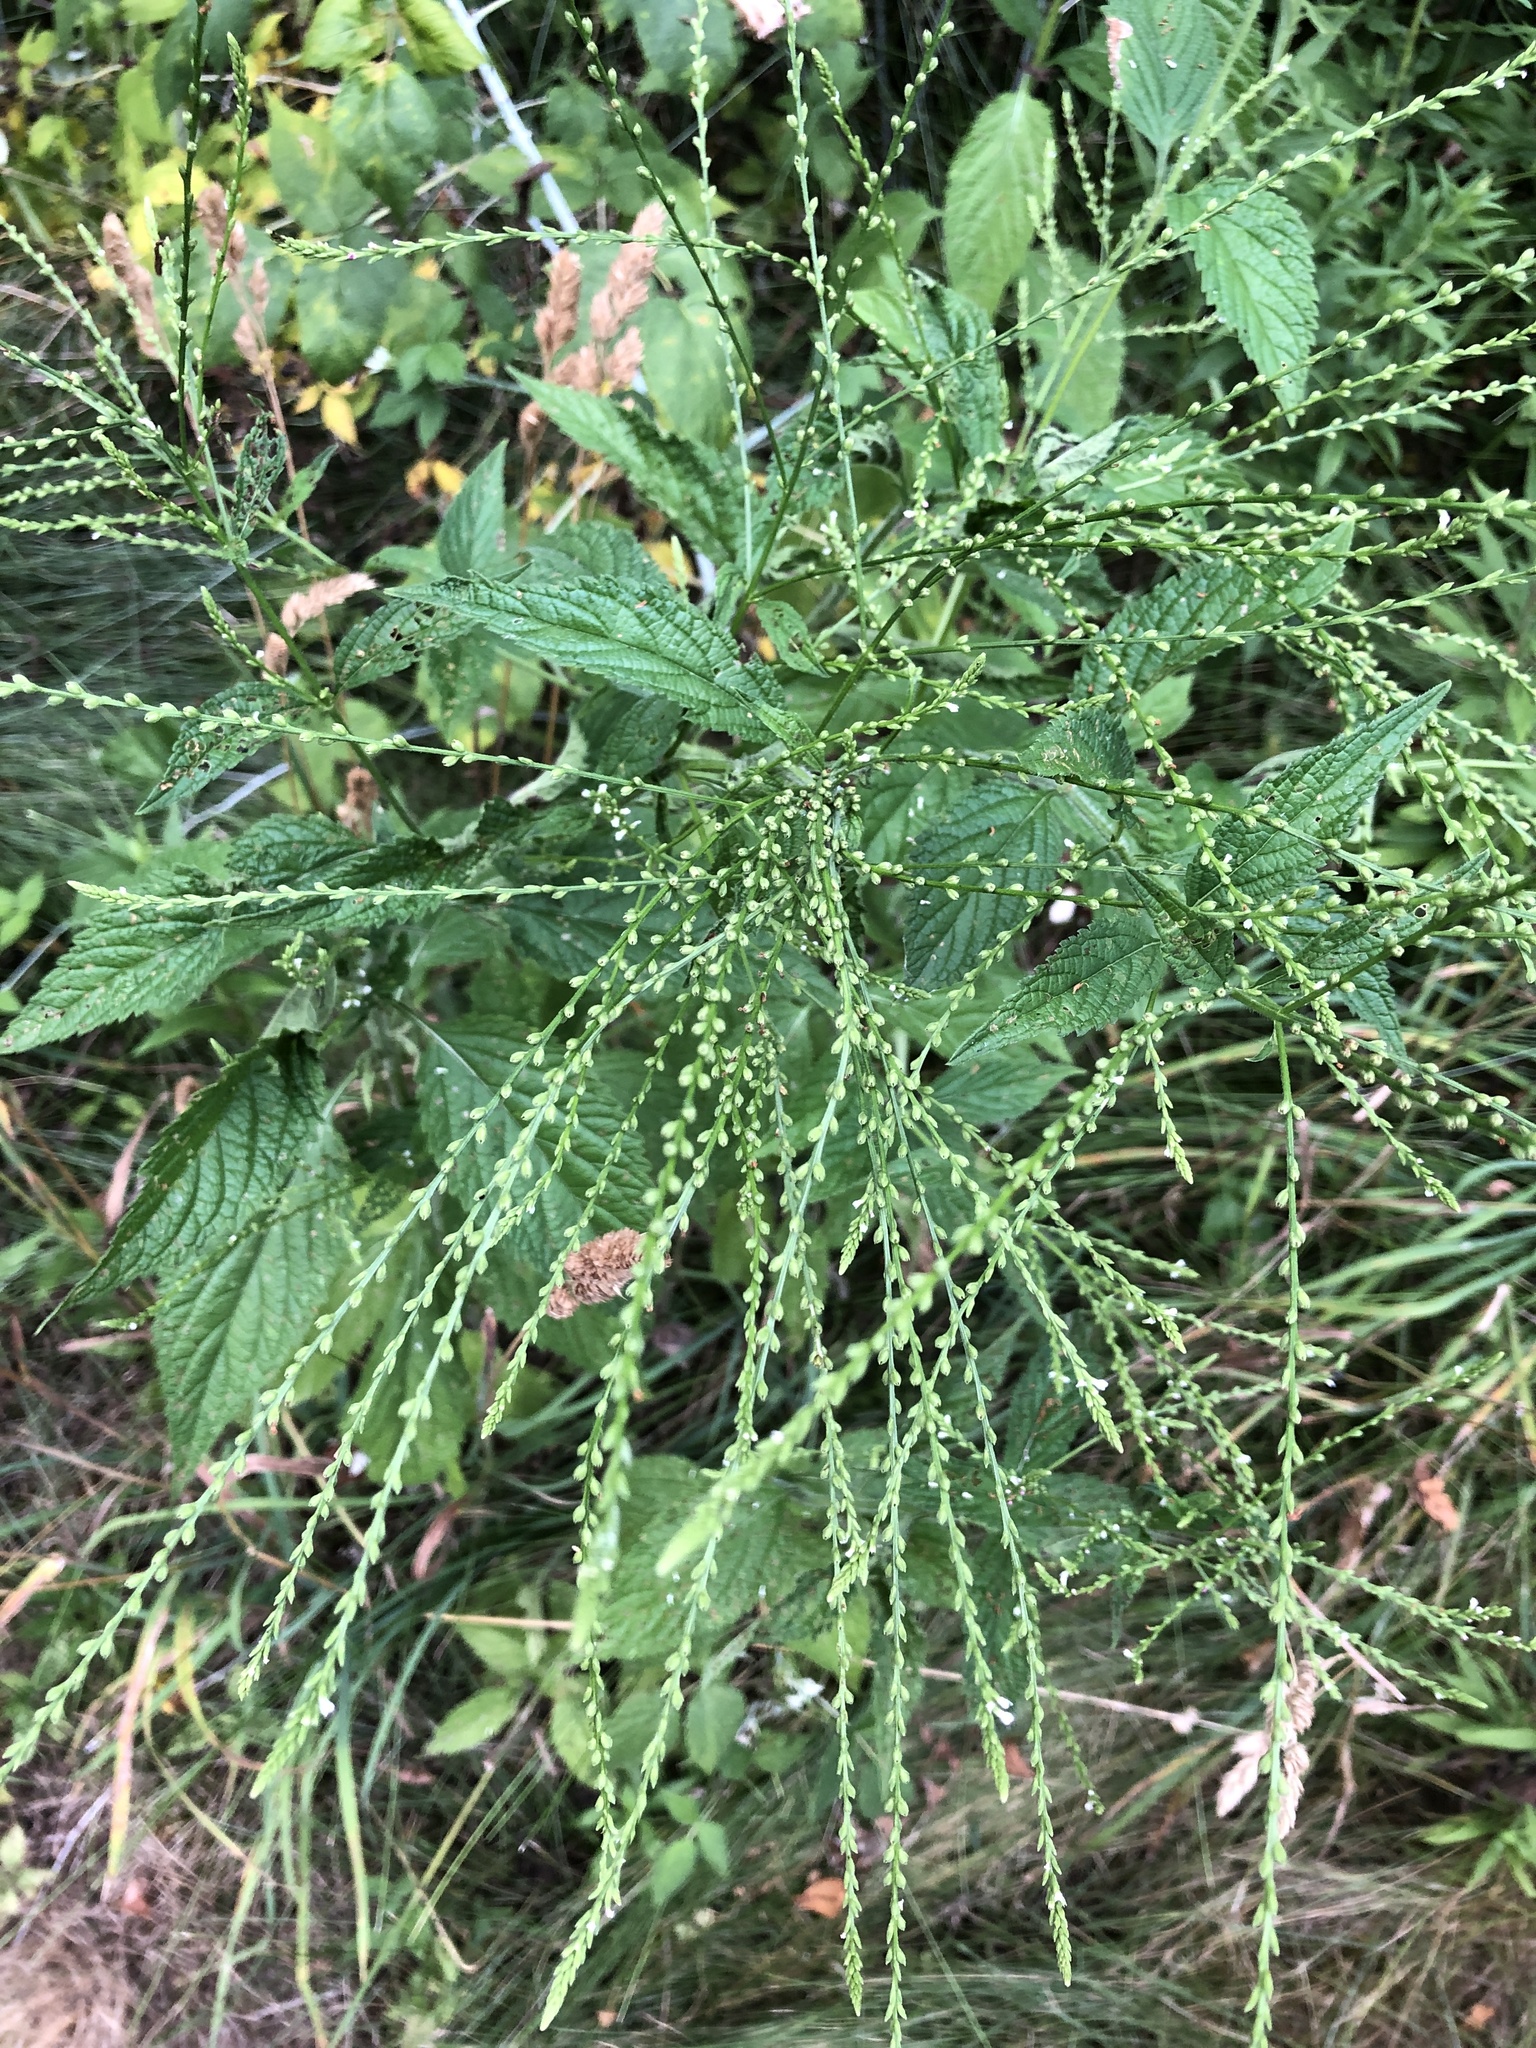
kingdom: Plantae
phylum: Tracheophyta
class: Magnoliopsida
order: Lamiales
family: Verbenaceae
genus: Verbena
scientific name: Verbena urticifolia
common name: Nettle-leaved vervain
